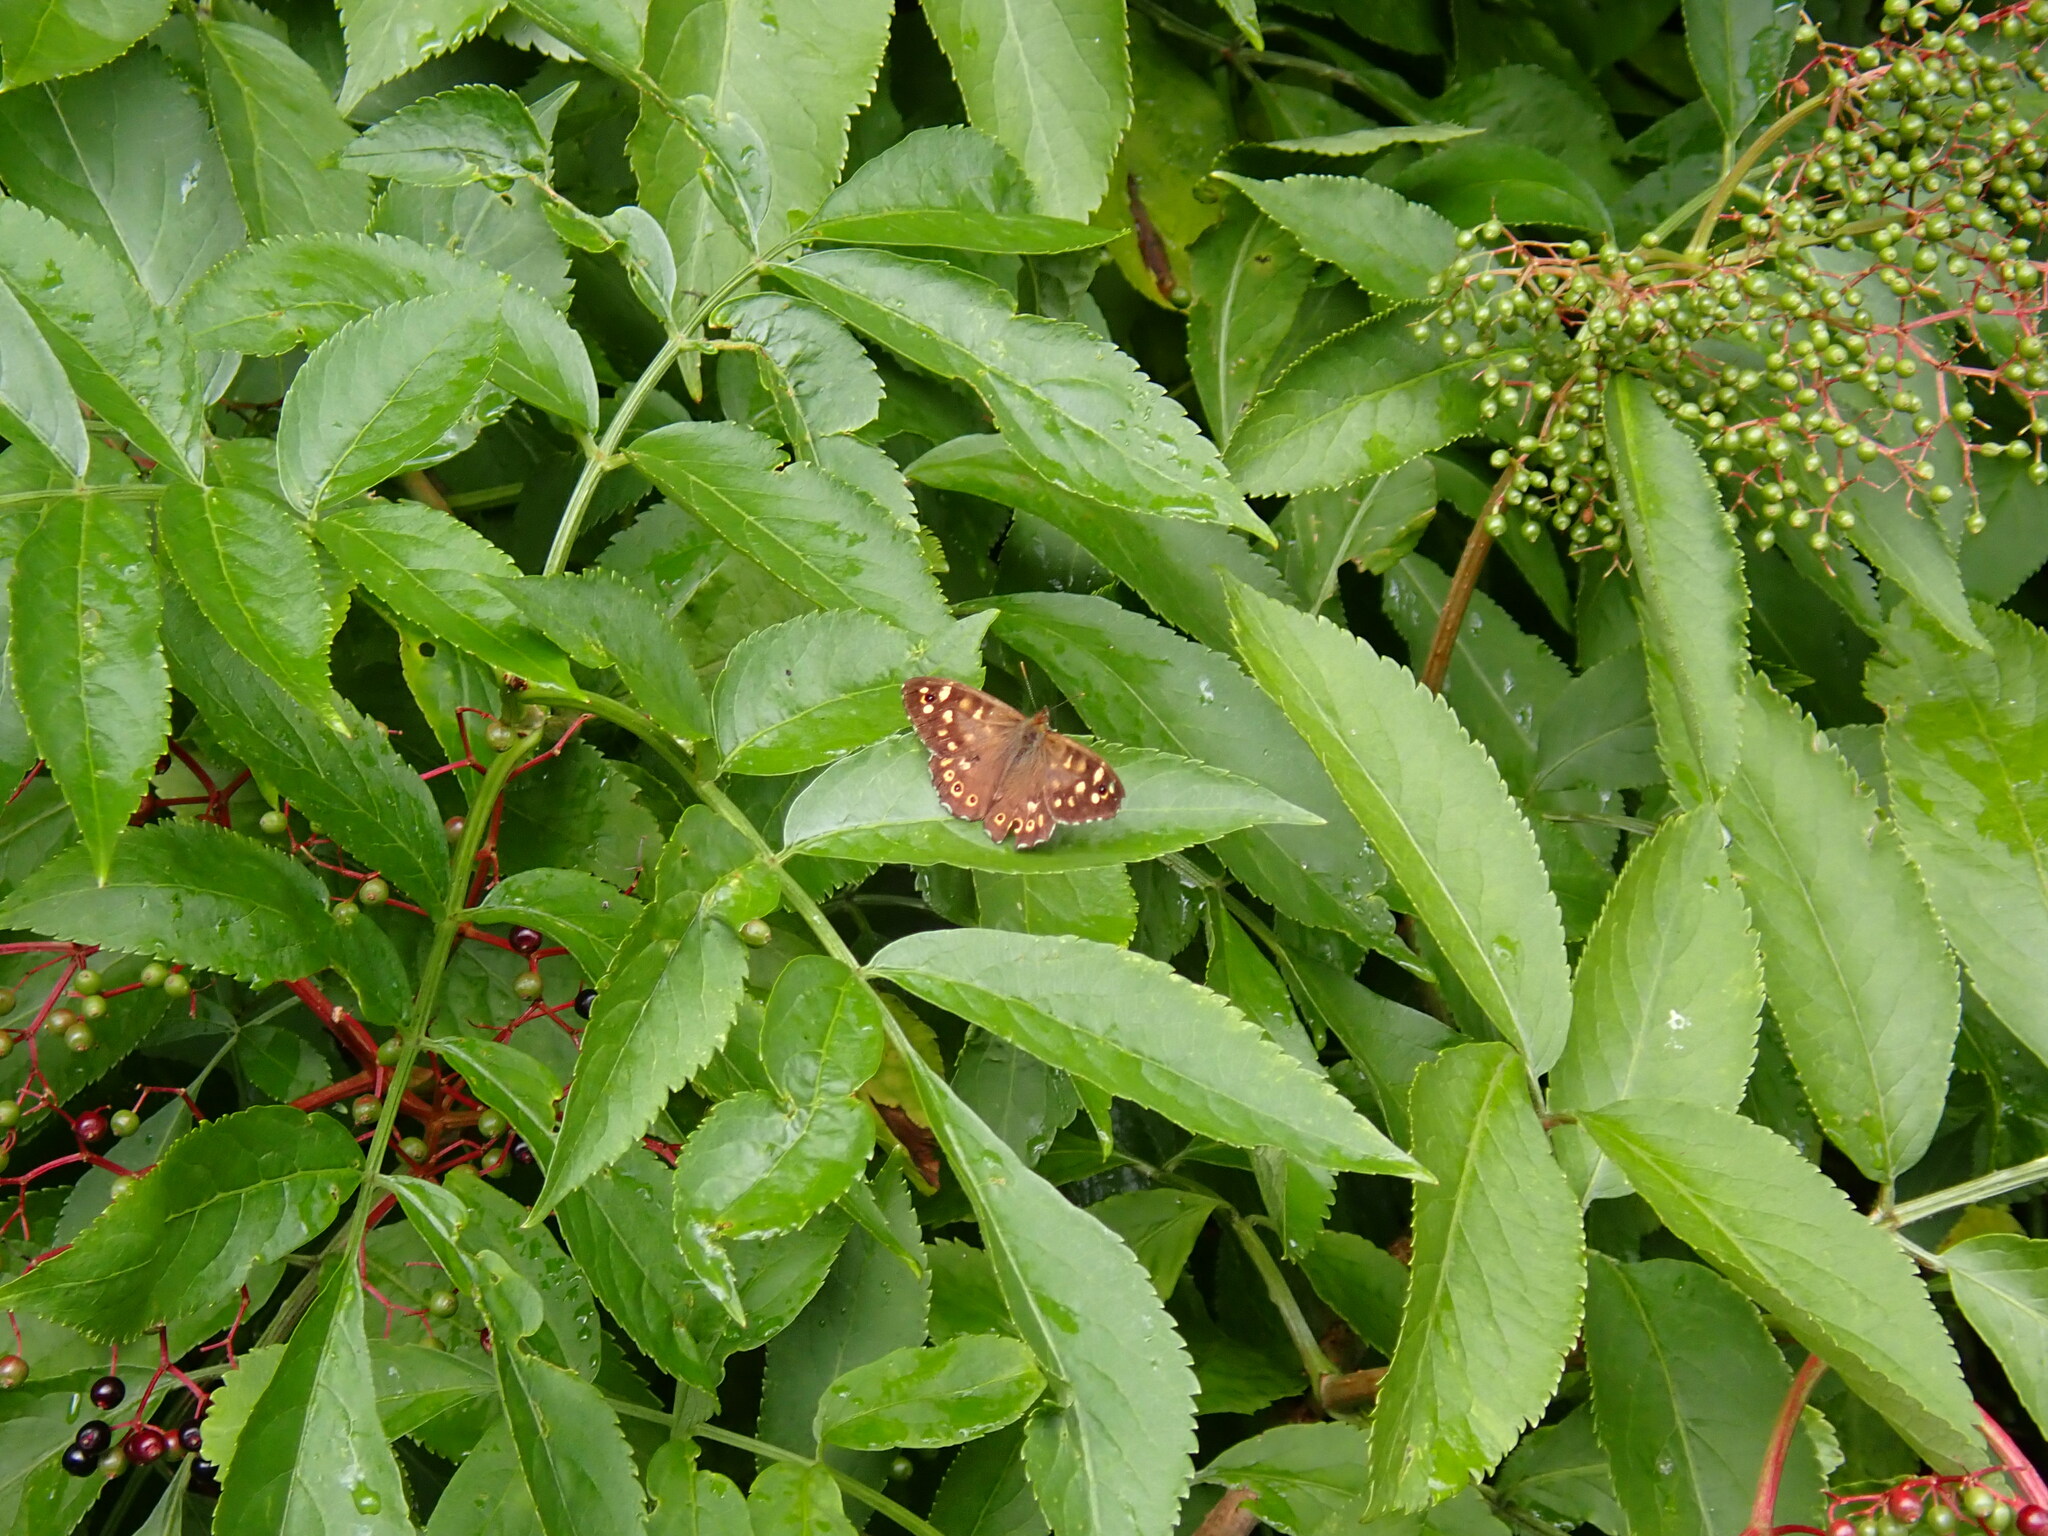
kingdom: Animalia
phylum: Arthropoda
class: Insecta
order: Lepidoptera
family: Nymphalidae
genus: Pararge
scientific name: Pararge aegeria
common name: Speckled wood
